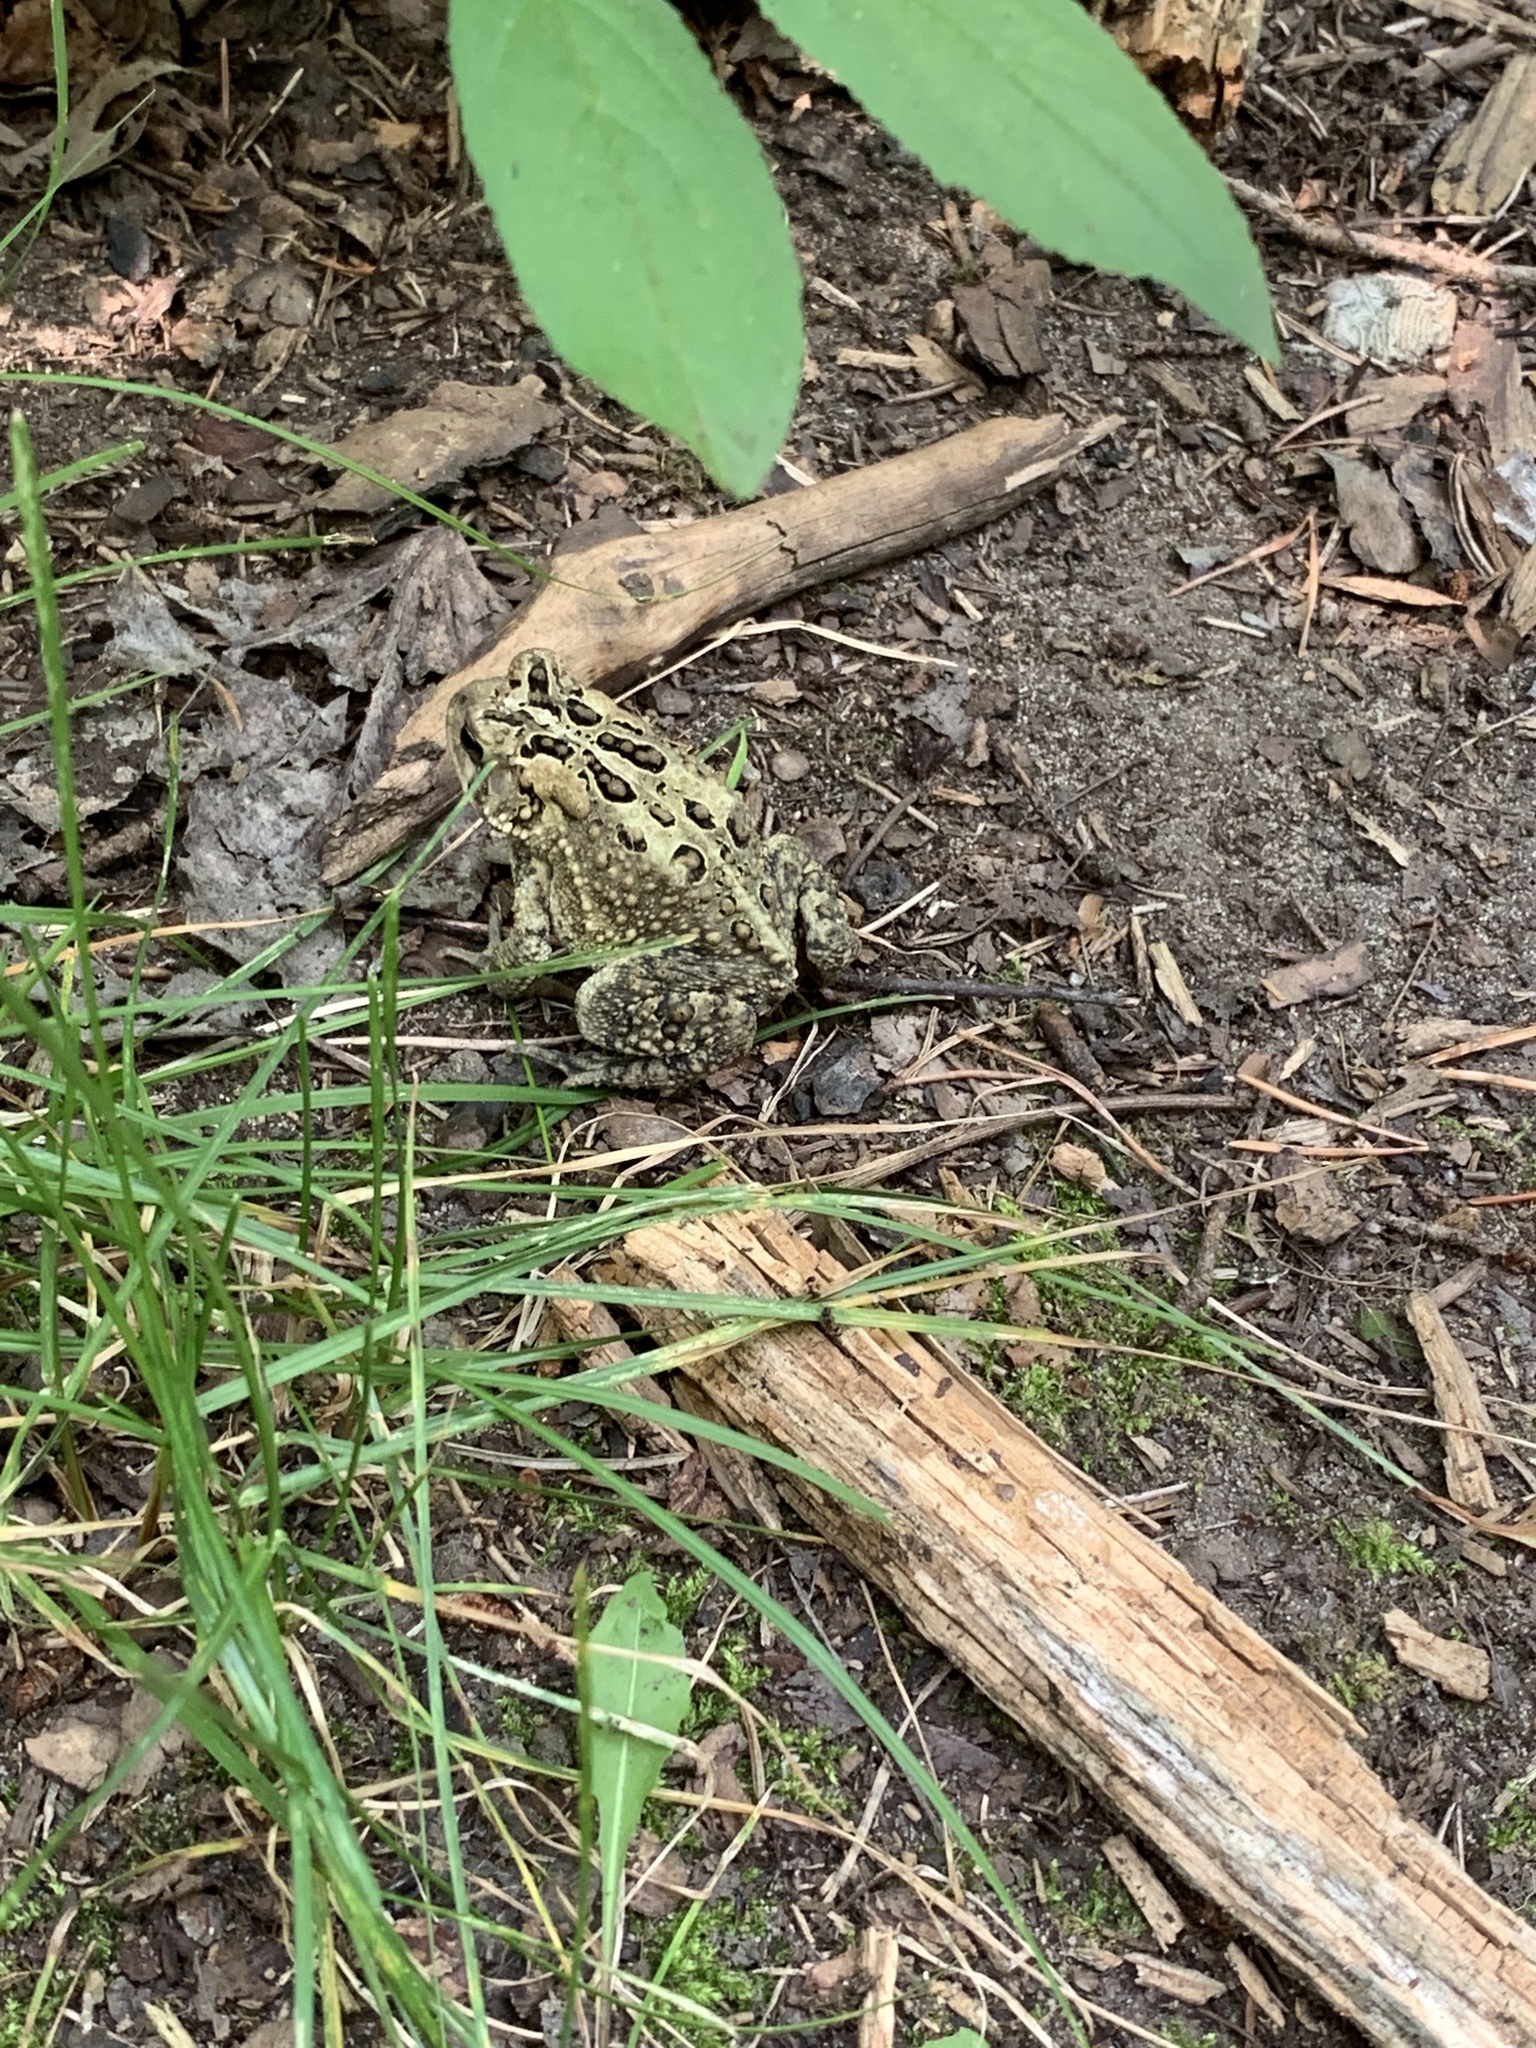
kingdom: Animalia
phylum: Chordata
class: Amphibia
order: Anura
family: Bufonidae
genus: Anaxyrus
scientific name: Anaxyrus americanus
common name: American toad
